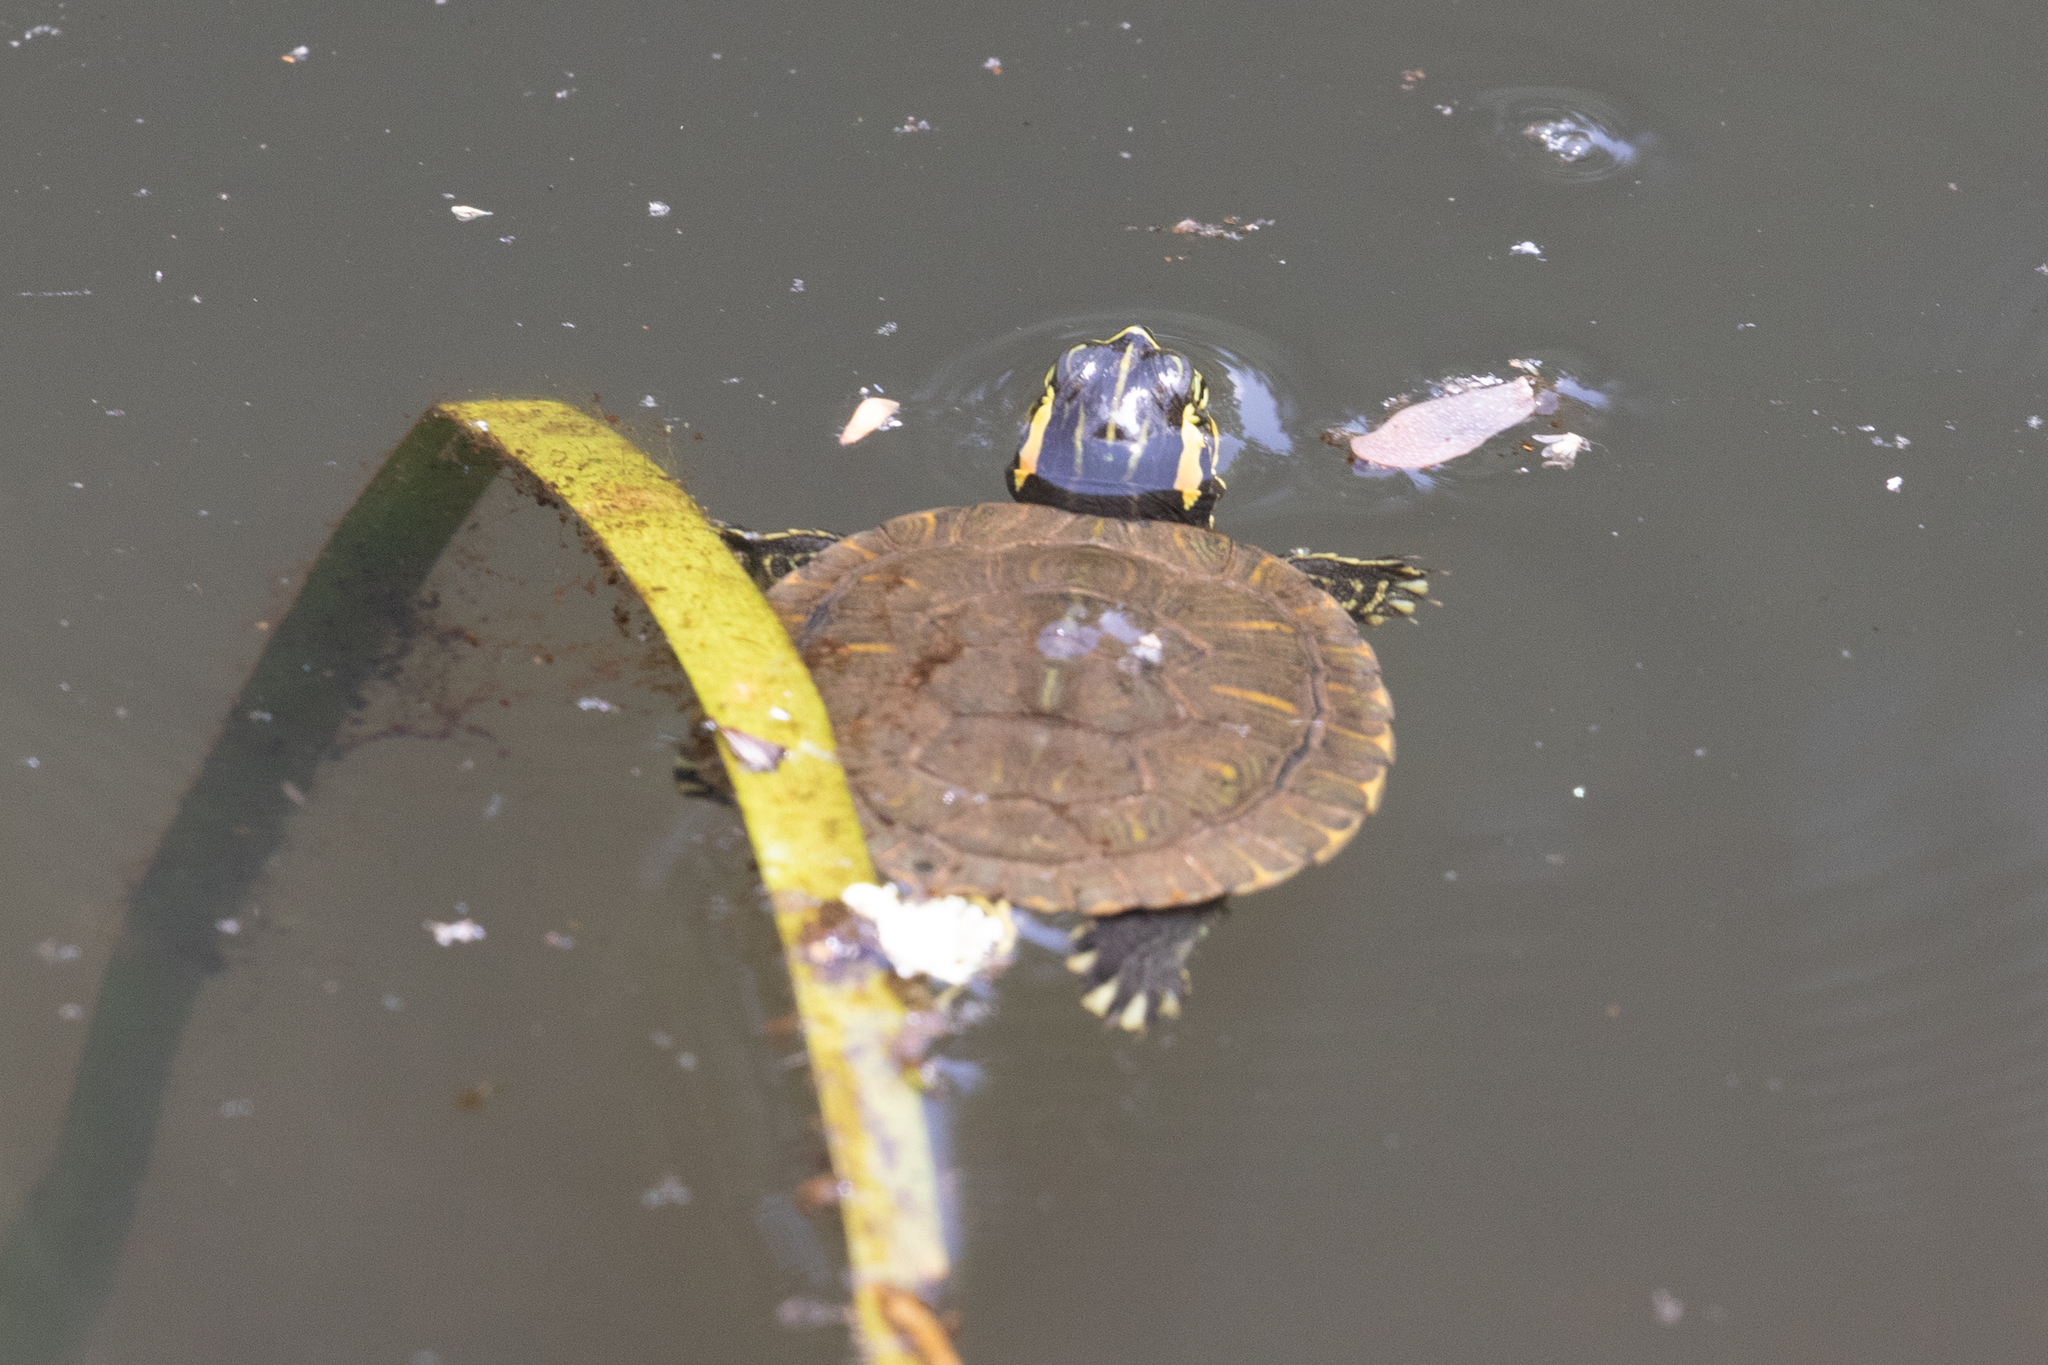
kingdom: Animalia
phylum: Chordata
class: Testudines
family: Emydidae
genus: Trachemys
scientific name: Trachemys scripta
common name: Slider
